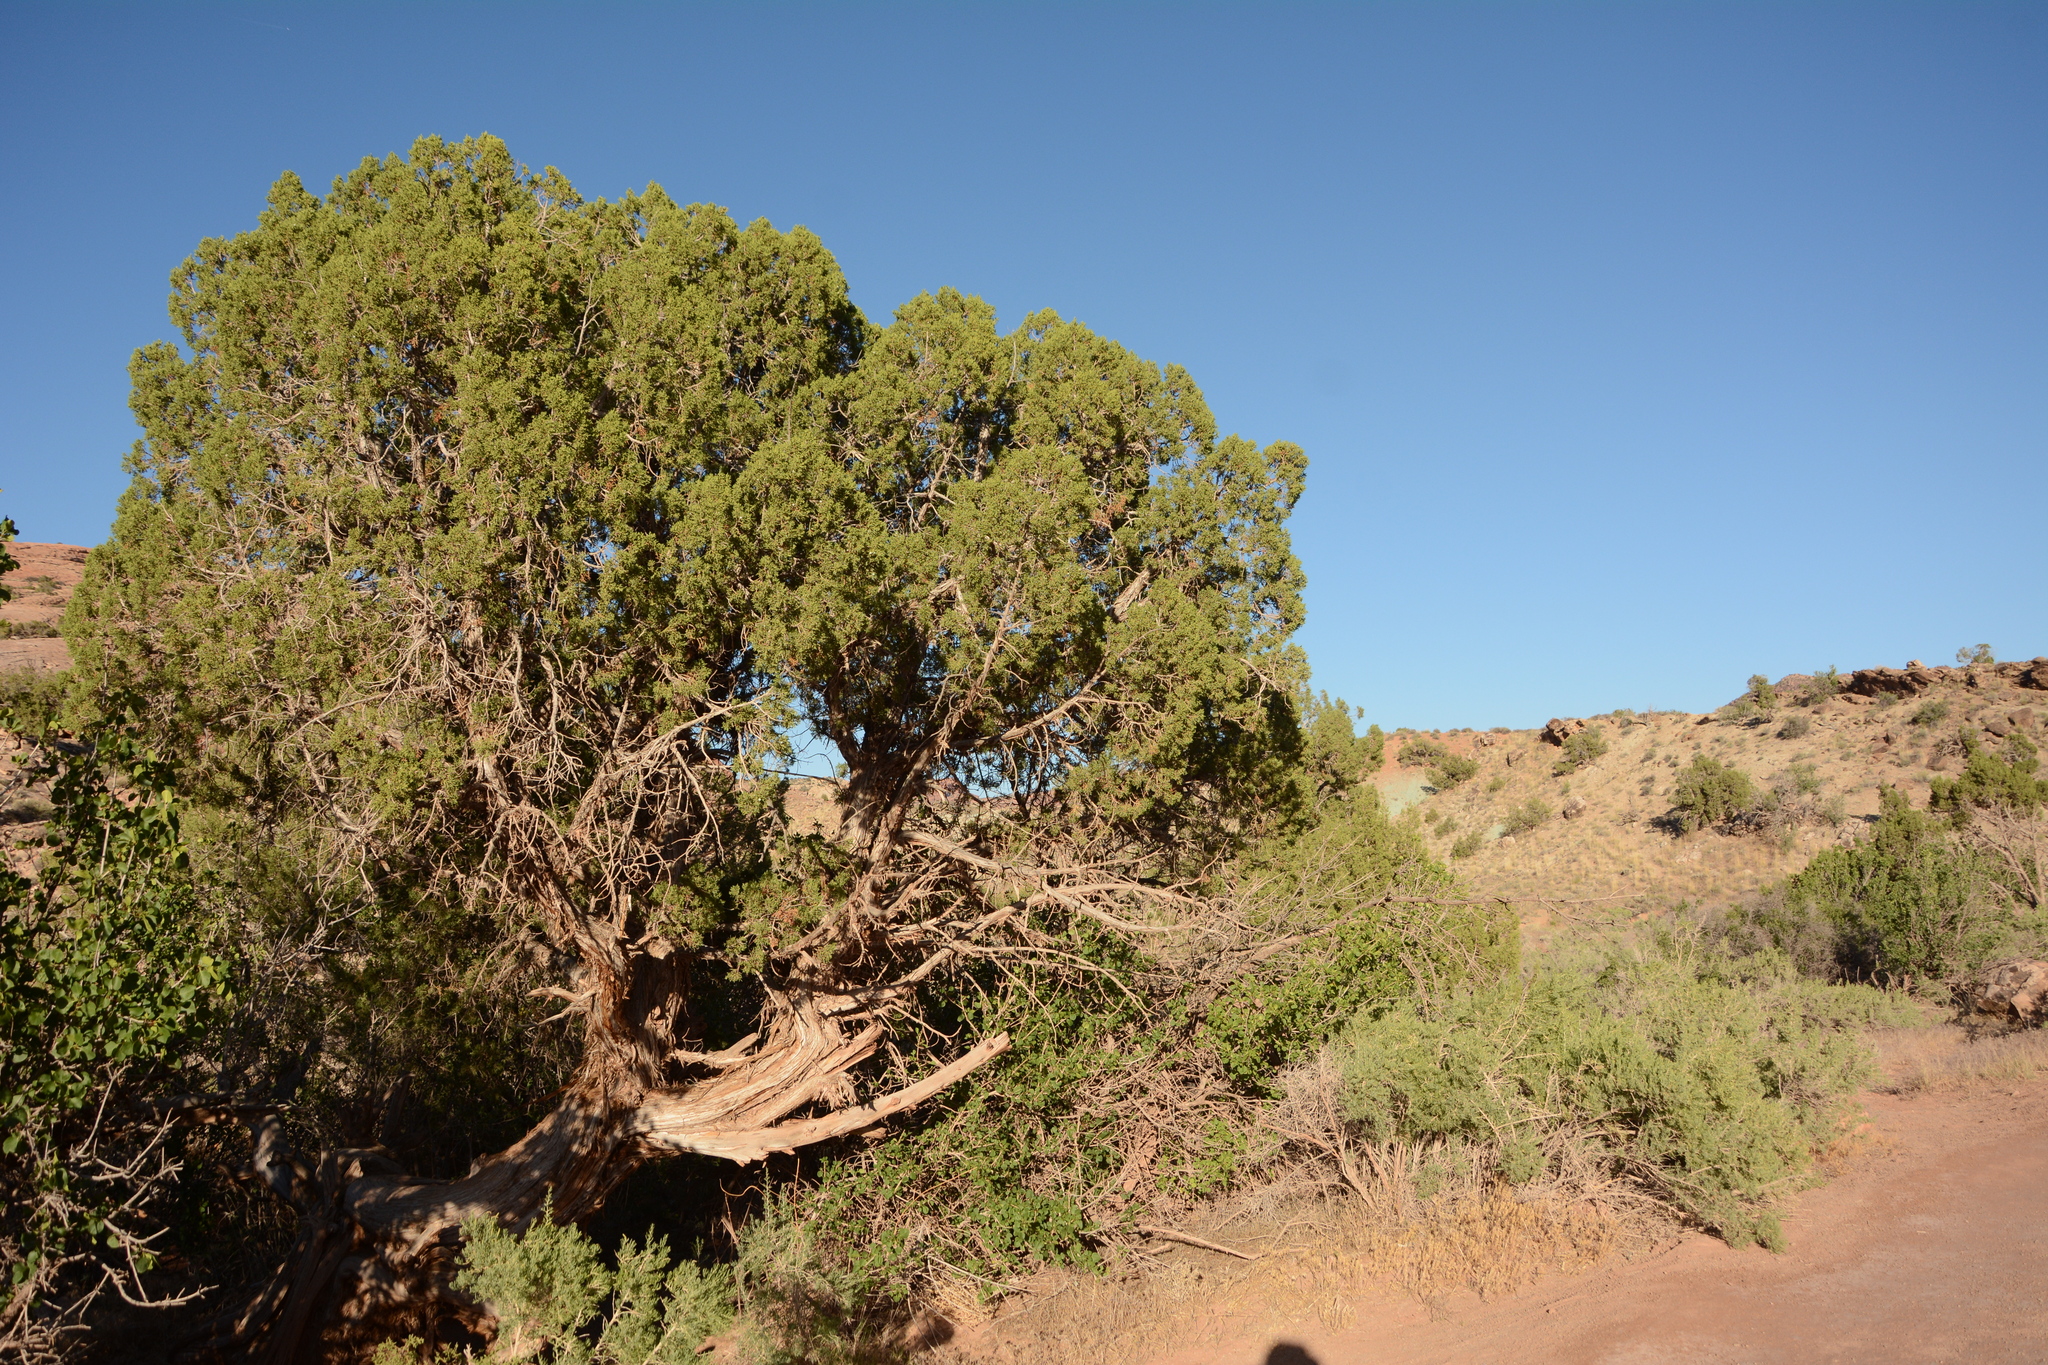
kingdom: Plantae
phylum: Tracheophyta
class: Pinopsida
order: Pinales
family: Cupressaceae
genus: Juniperus
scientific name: Juniperus osteosperma
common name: Utah juniper
